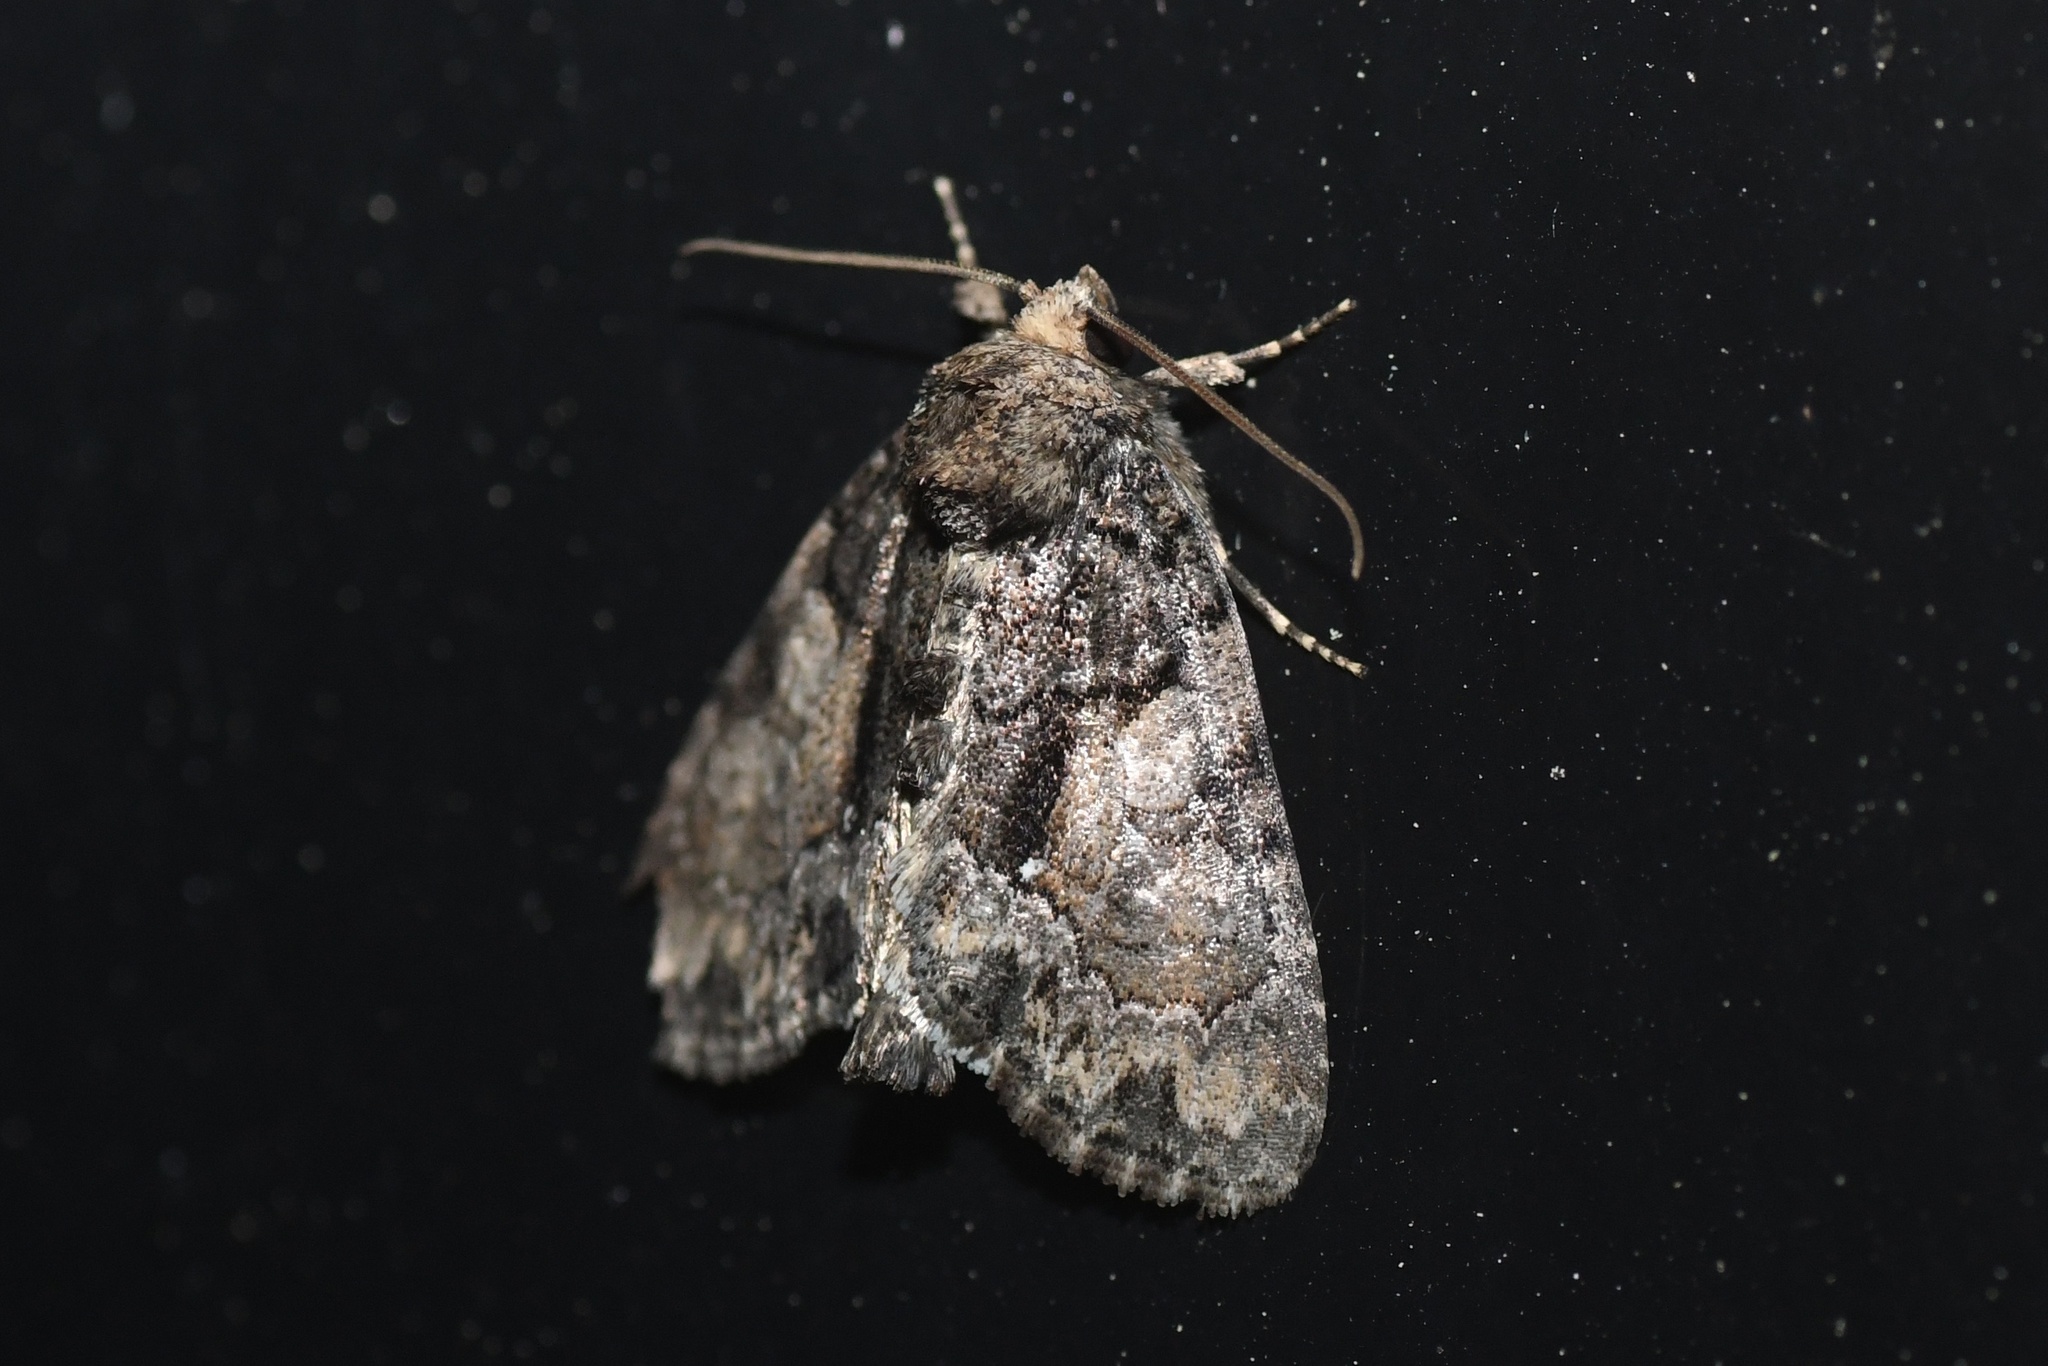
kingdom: Animalia
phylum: Arthropoda
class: Insecta
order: Lepidoptera
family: Noctuidae
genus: Chytonix
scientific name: Chytonix palliatricula
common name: Cloaked marvel
